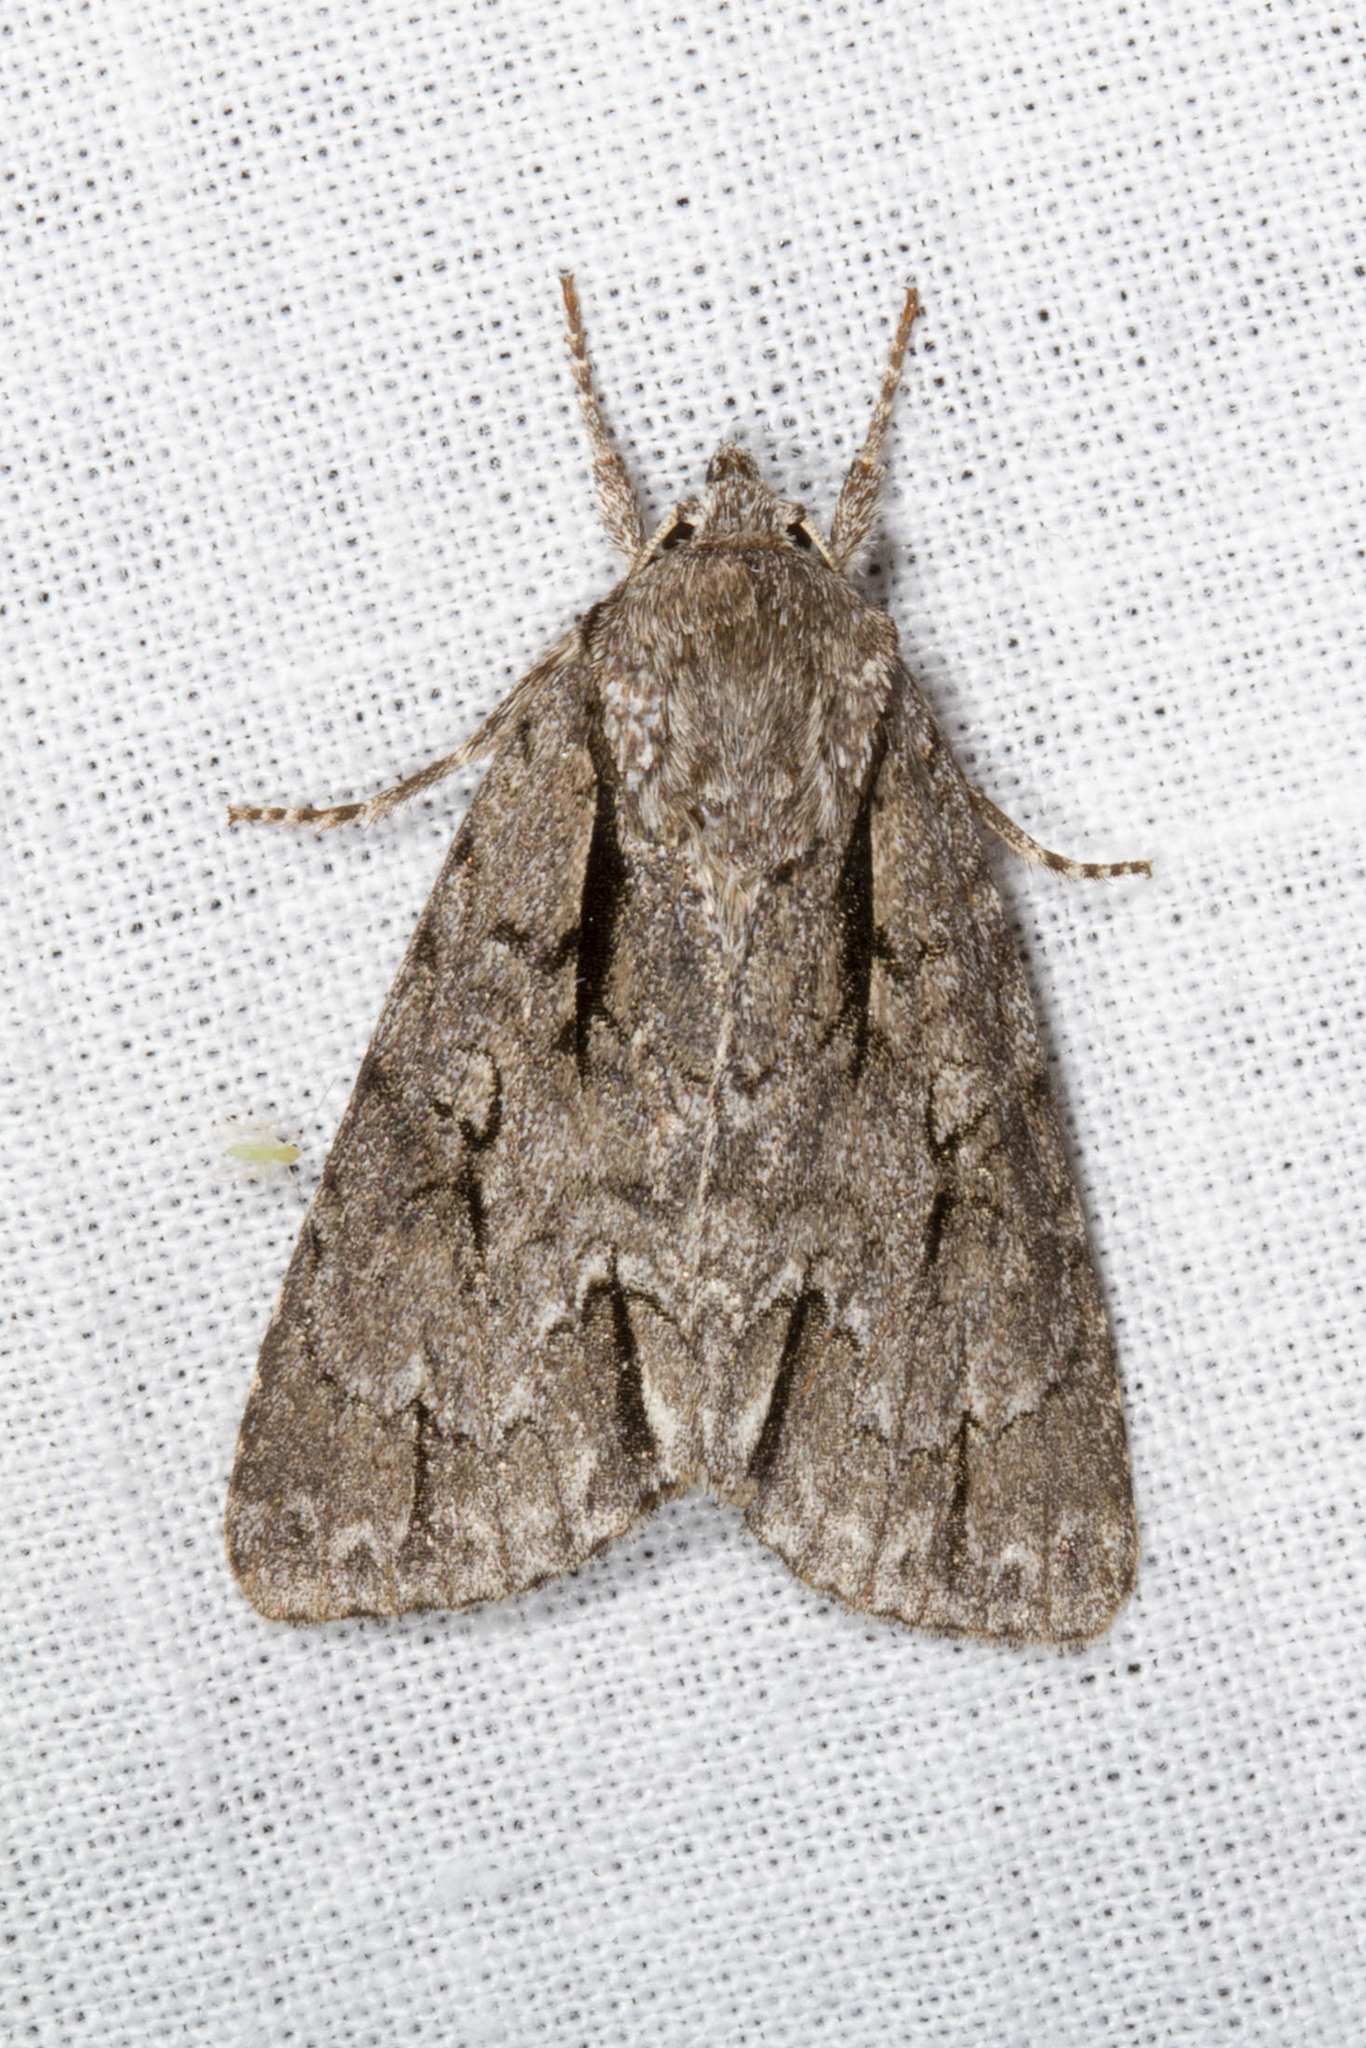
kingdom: Animalia
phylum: Arthropoda
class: Insecta
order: Lepidoptera
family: Noctuidae
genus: Acronicta
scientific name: Acronicta hasta
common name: Cherry dagger
